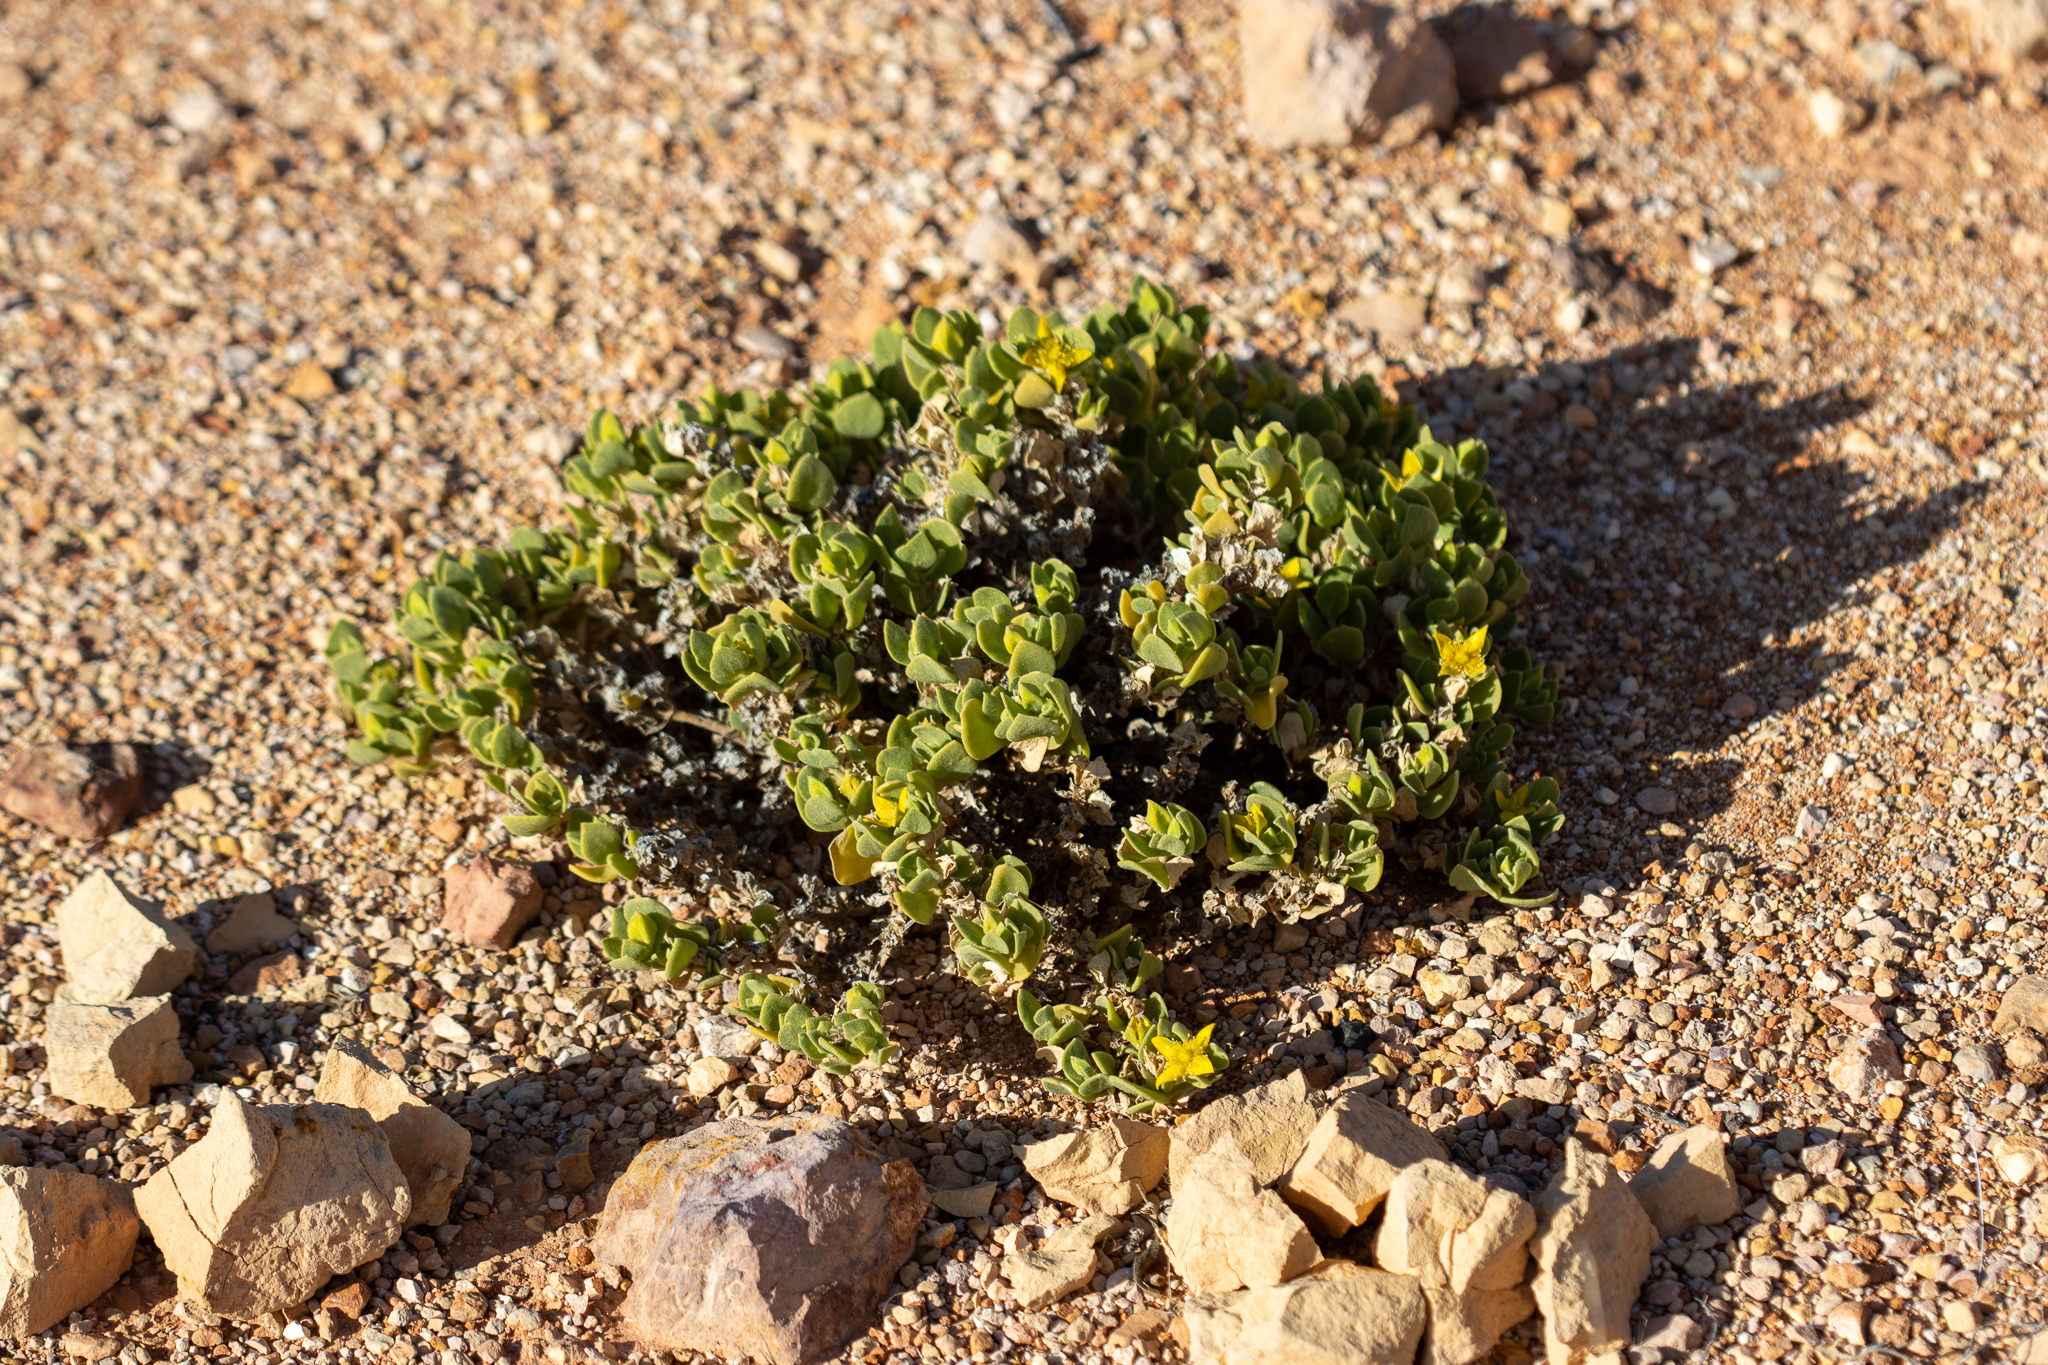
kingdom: Plantae
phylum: Tracheophyta
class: Magnoliopsida
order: Caryophyllales
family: Aizoaceae
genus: Gunniopsis
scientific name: Gunniopsis zygophylloides
